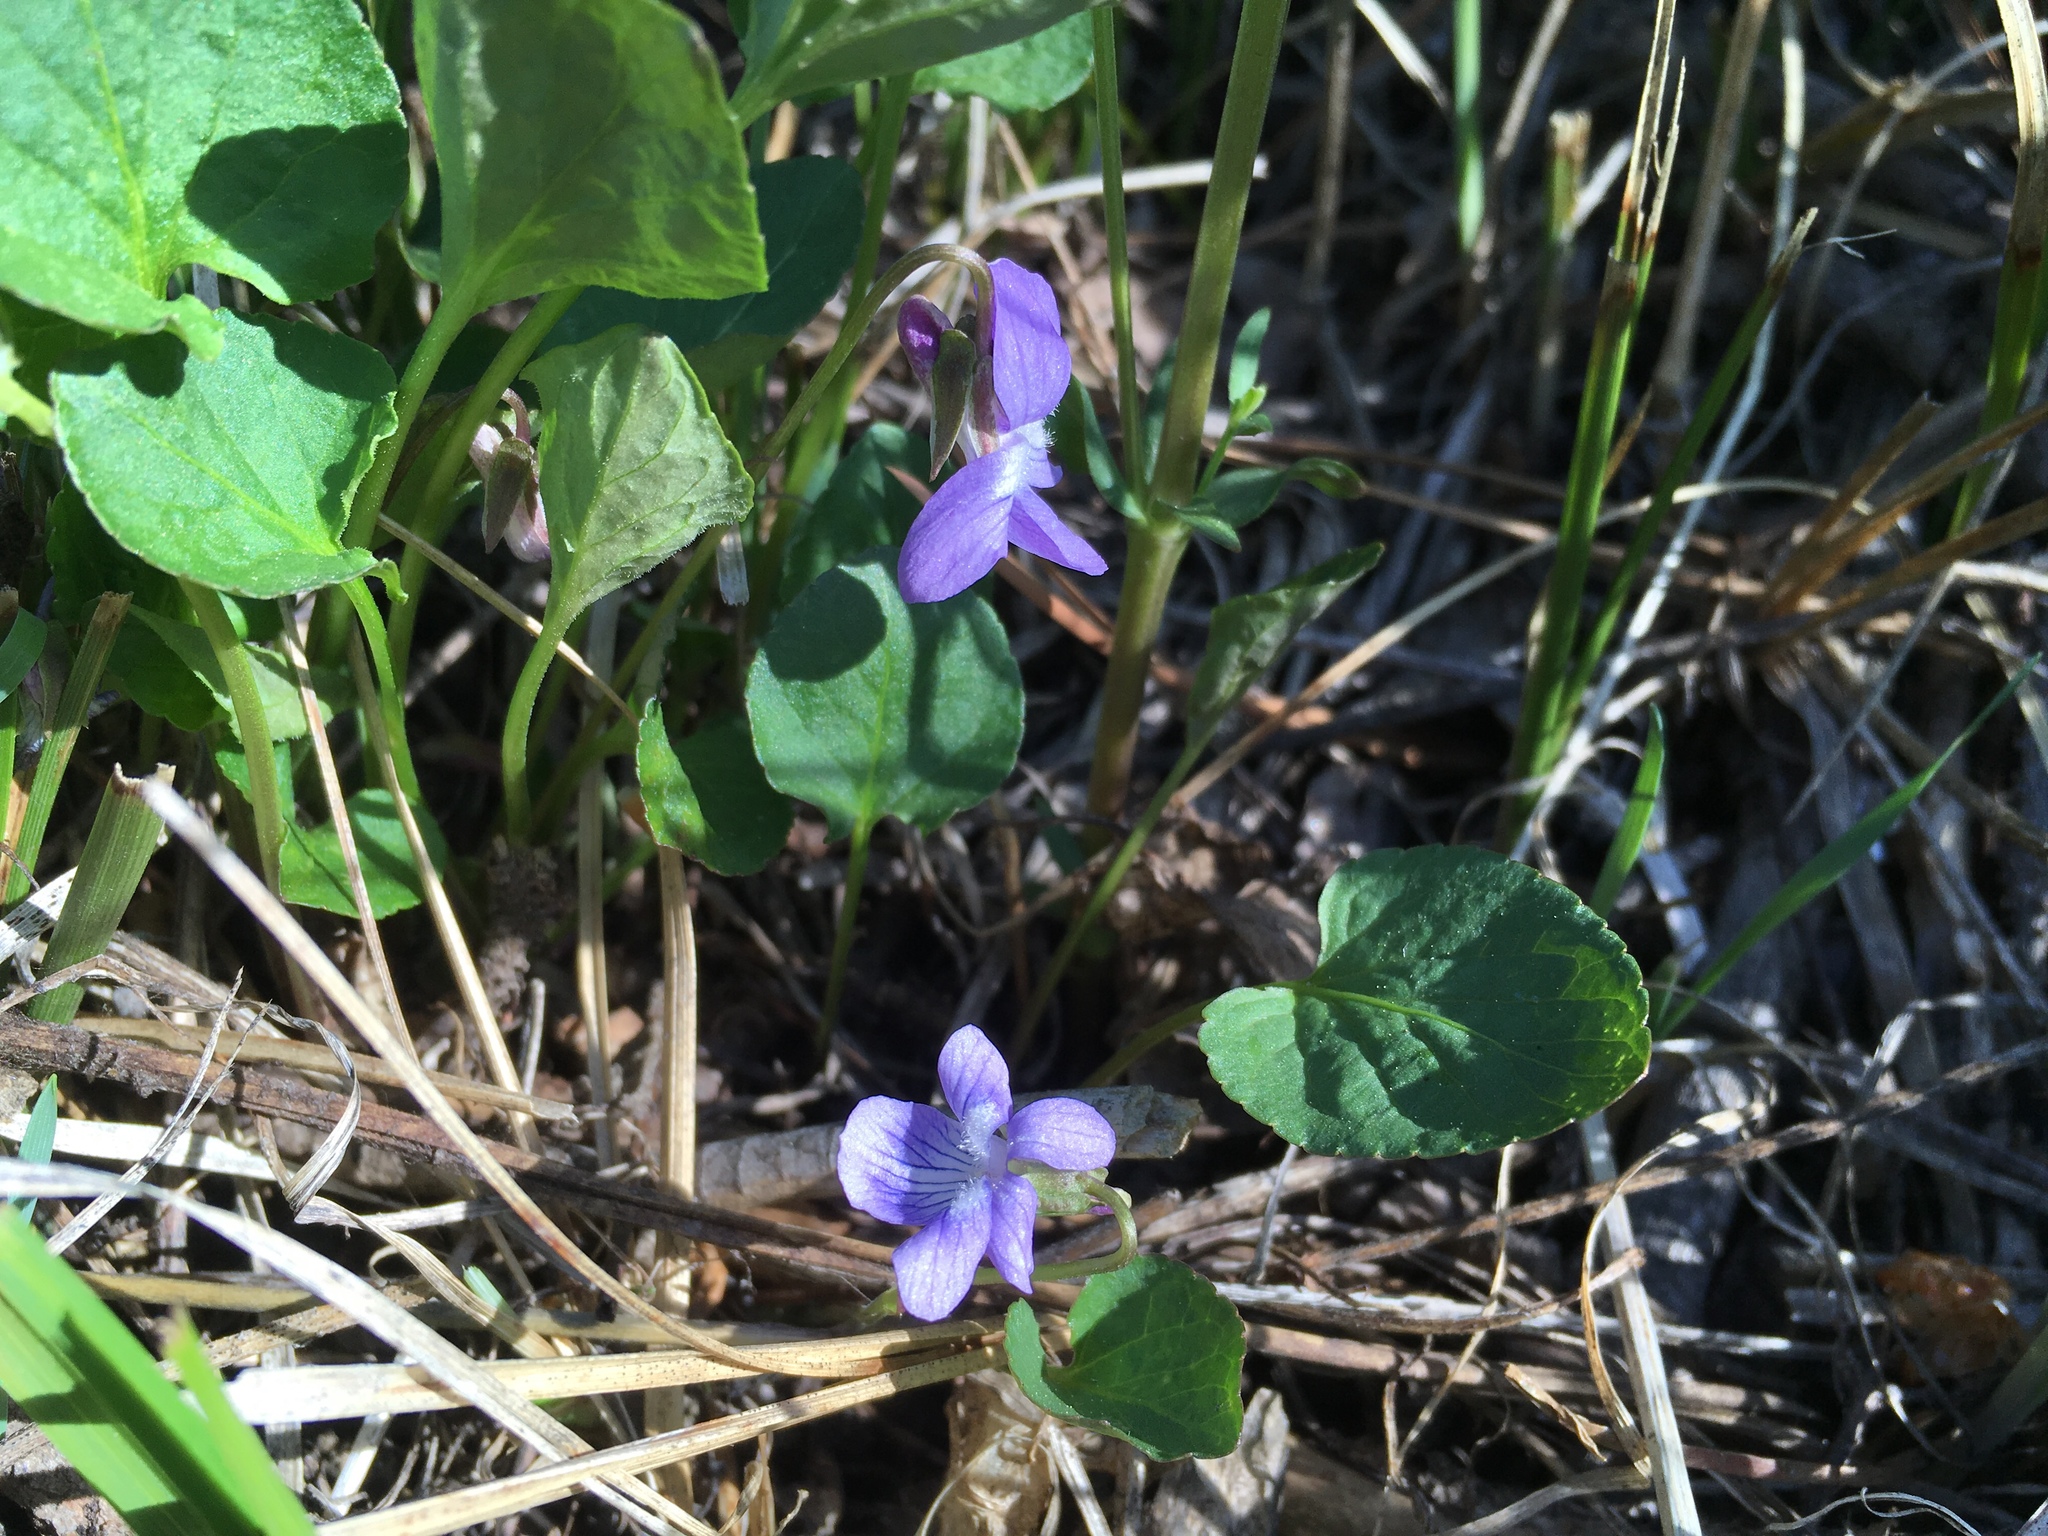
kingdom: Plantae
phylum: Tracheophyta
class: Magnoliopsida
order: Malpighiales
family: Violaceae
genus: Viola
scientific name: Viola nephrophylla
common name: Blue meadow violet
